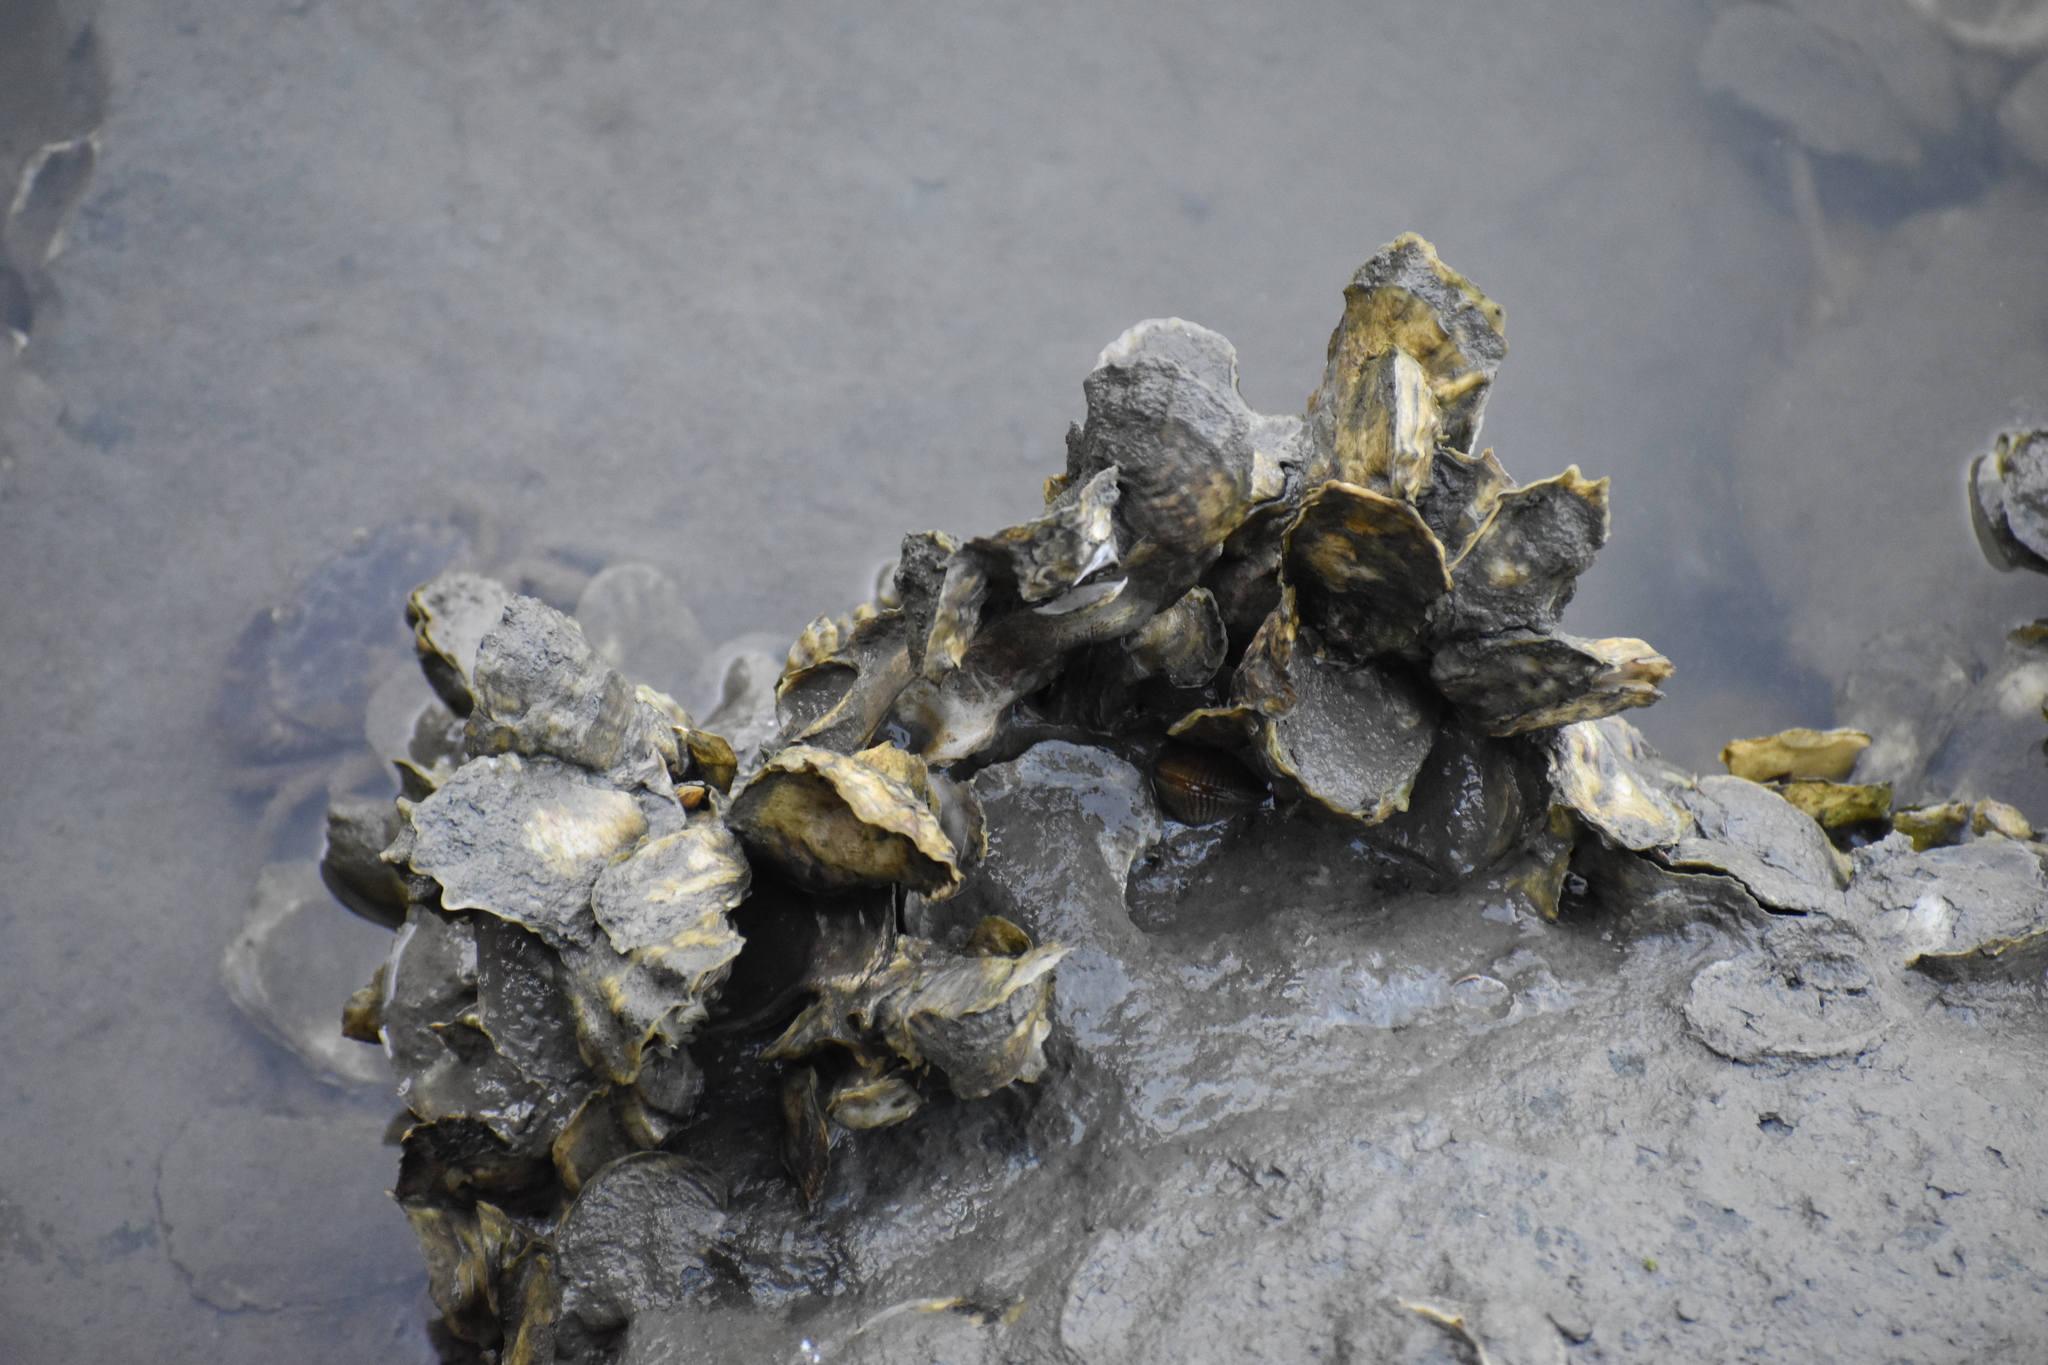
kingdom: Animalia
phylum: Mollusca
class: Bivalvia
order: Ostreida
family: Ostreidae
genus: Crassostrea
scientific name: Crassostrea virginica
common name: American oyster
